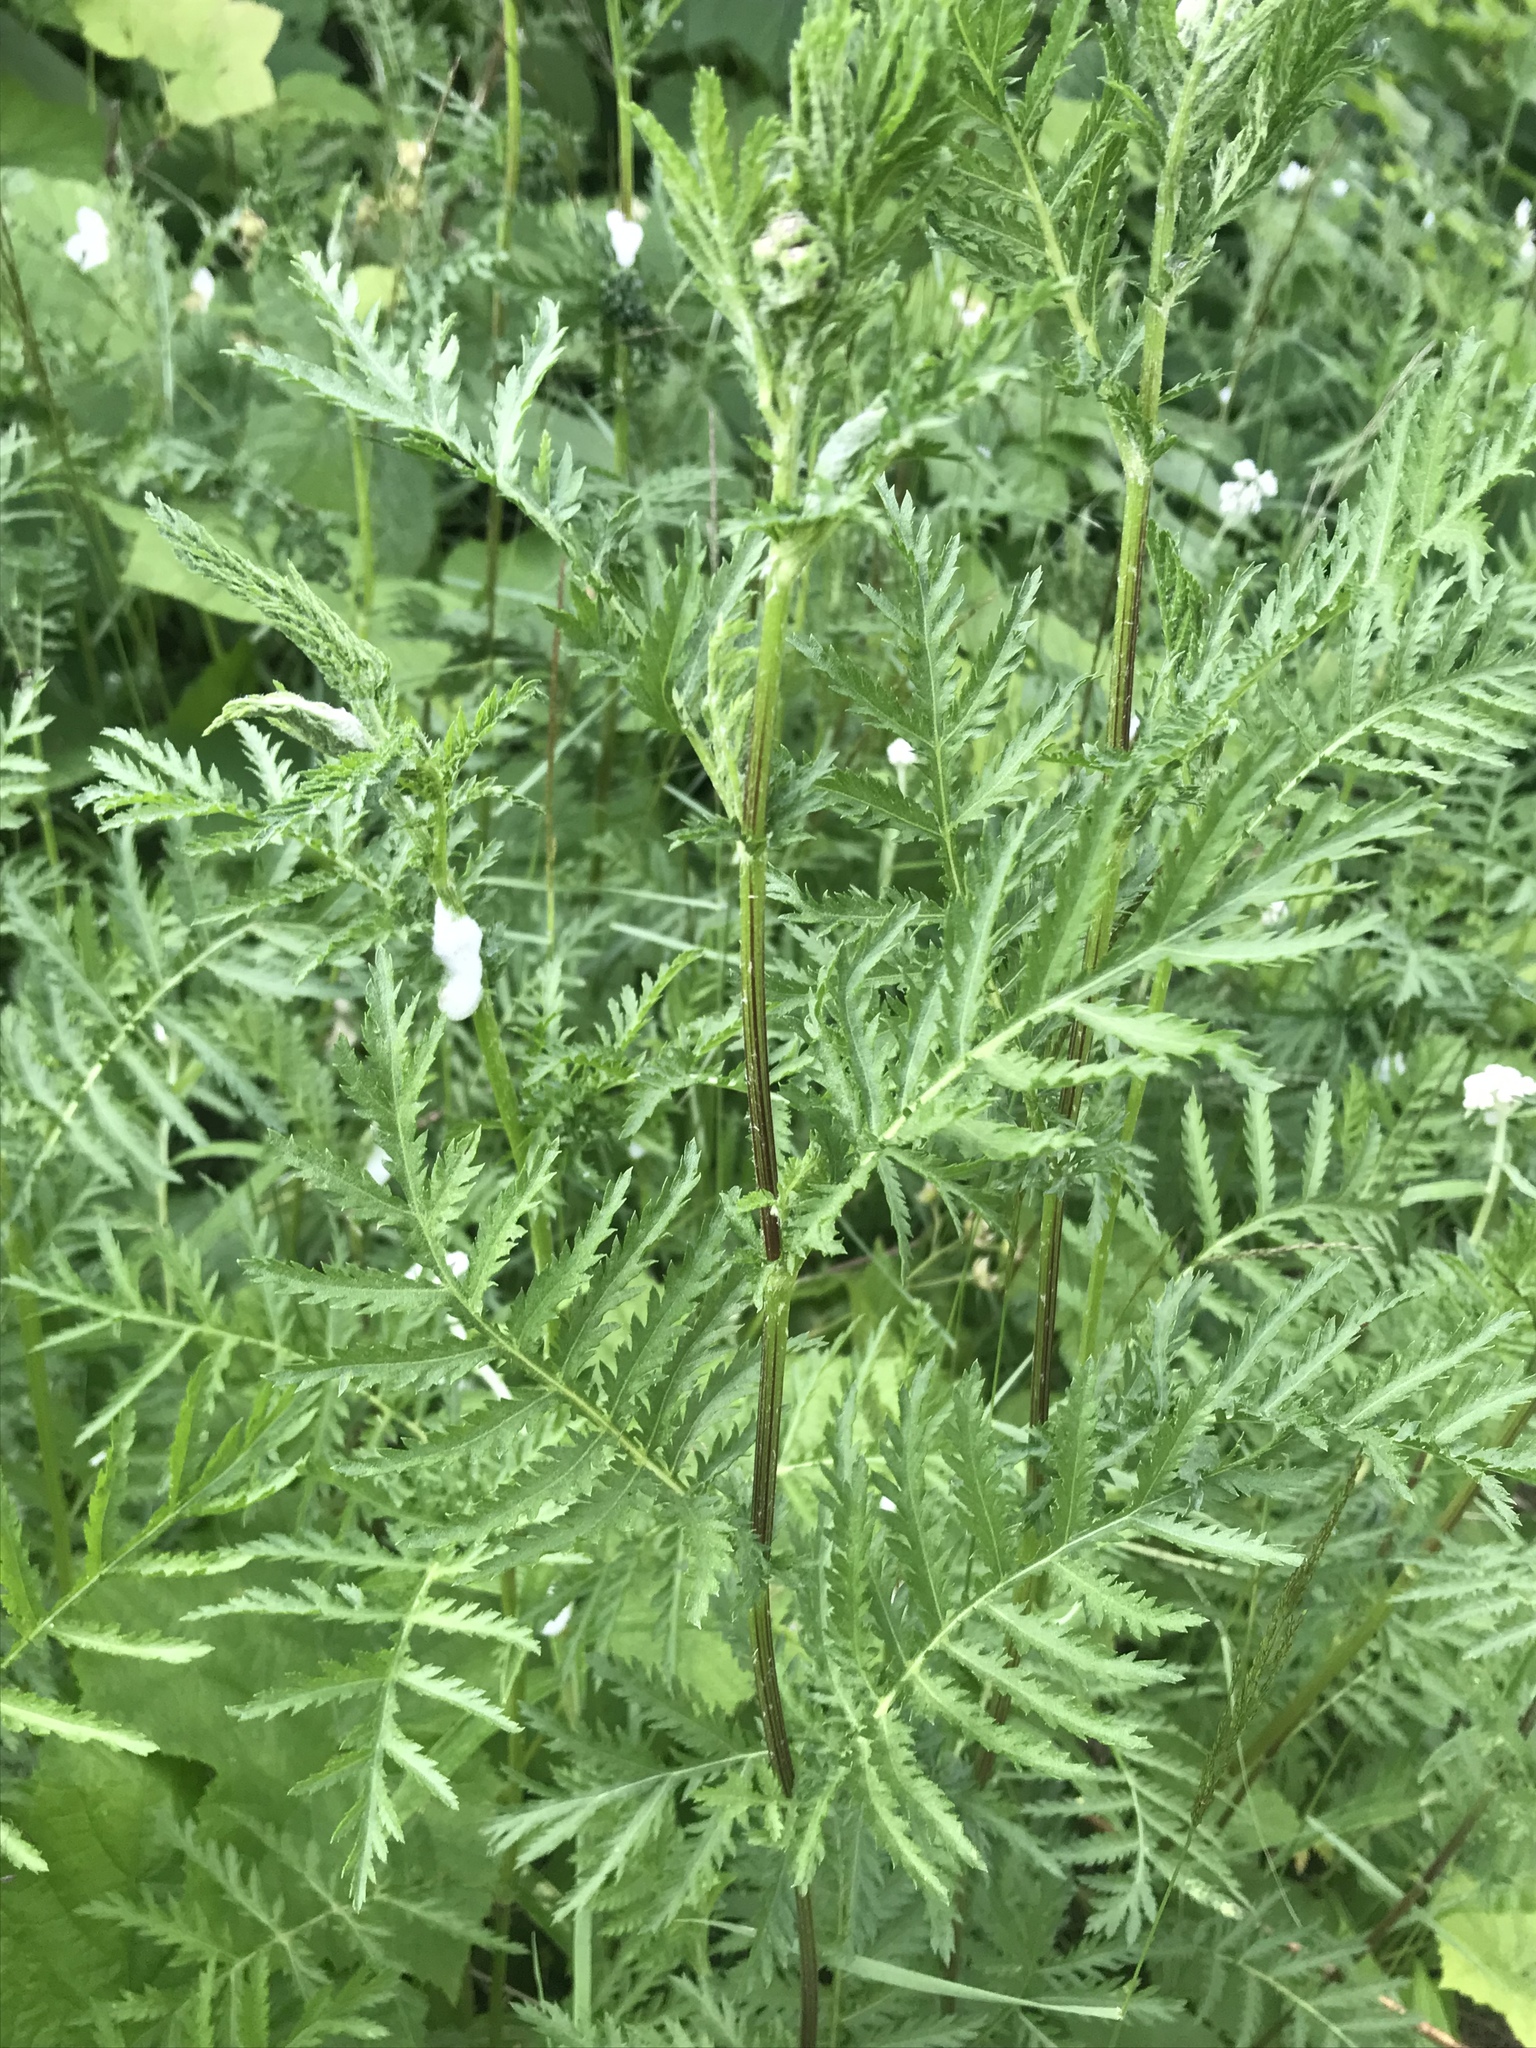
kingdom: Plantae
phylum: Tracheophyta
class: Magnoliopsida
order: Asterales
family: Asteraceae
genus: Tanacetum
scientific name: Tanacetum vulgare
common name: Common tansy
